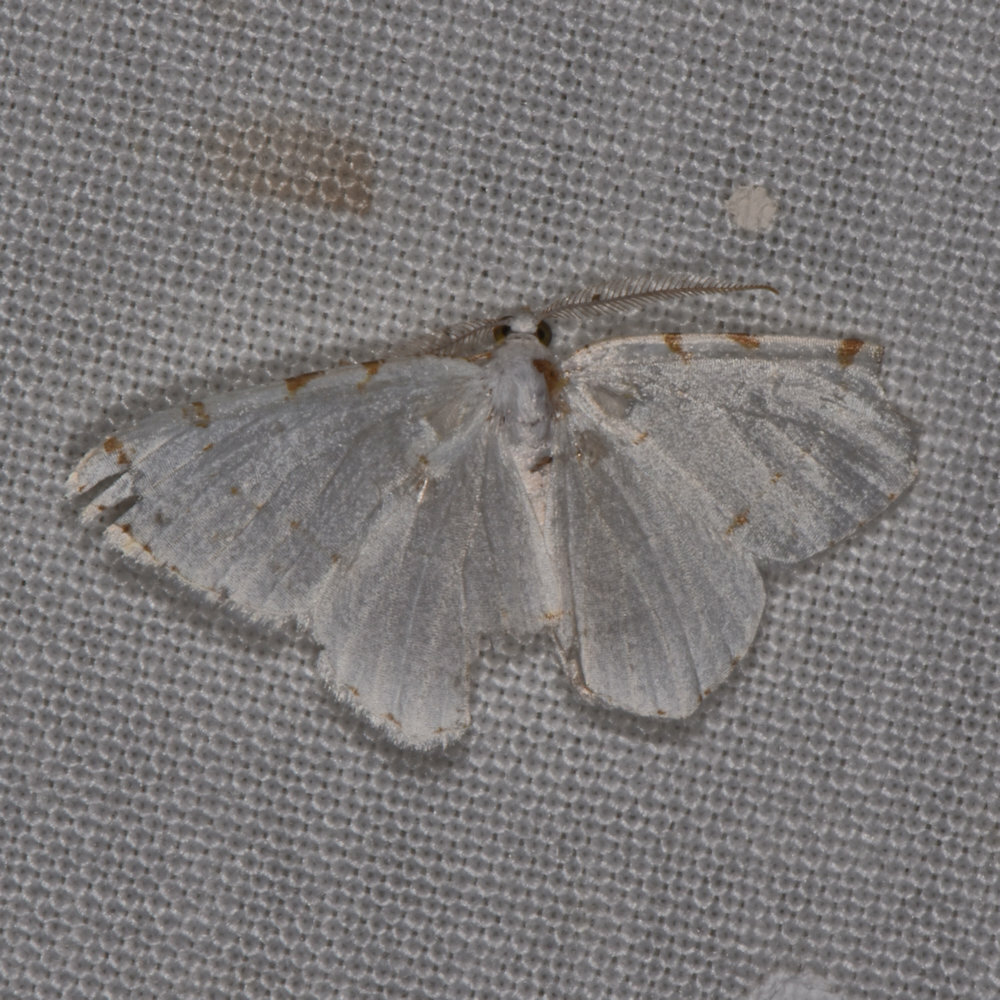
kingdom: Animalia
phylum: Arthropoda
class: Insecta
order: Lepidoptera
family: Geometridae
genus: Macaria
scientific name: Macaria pustularia
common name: Lesser maple spanworm moth
